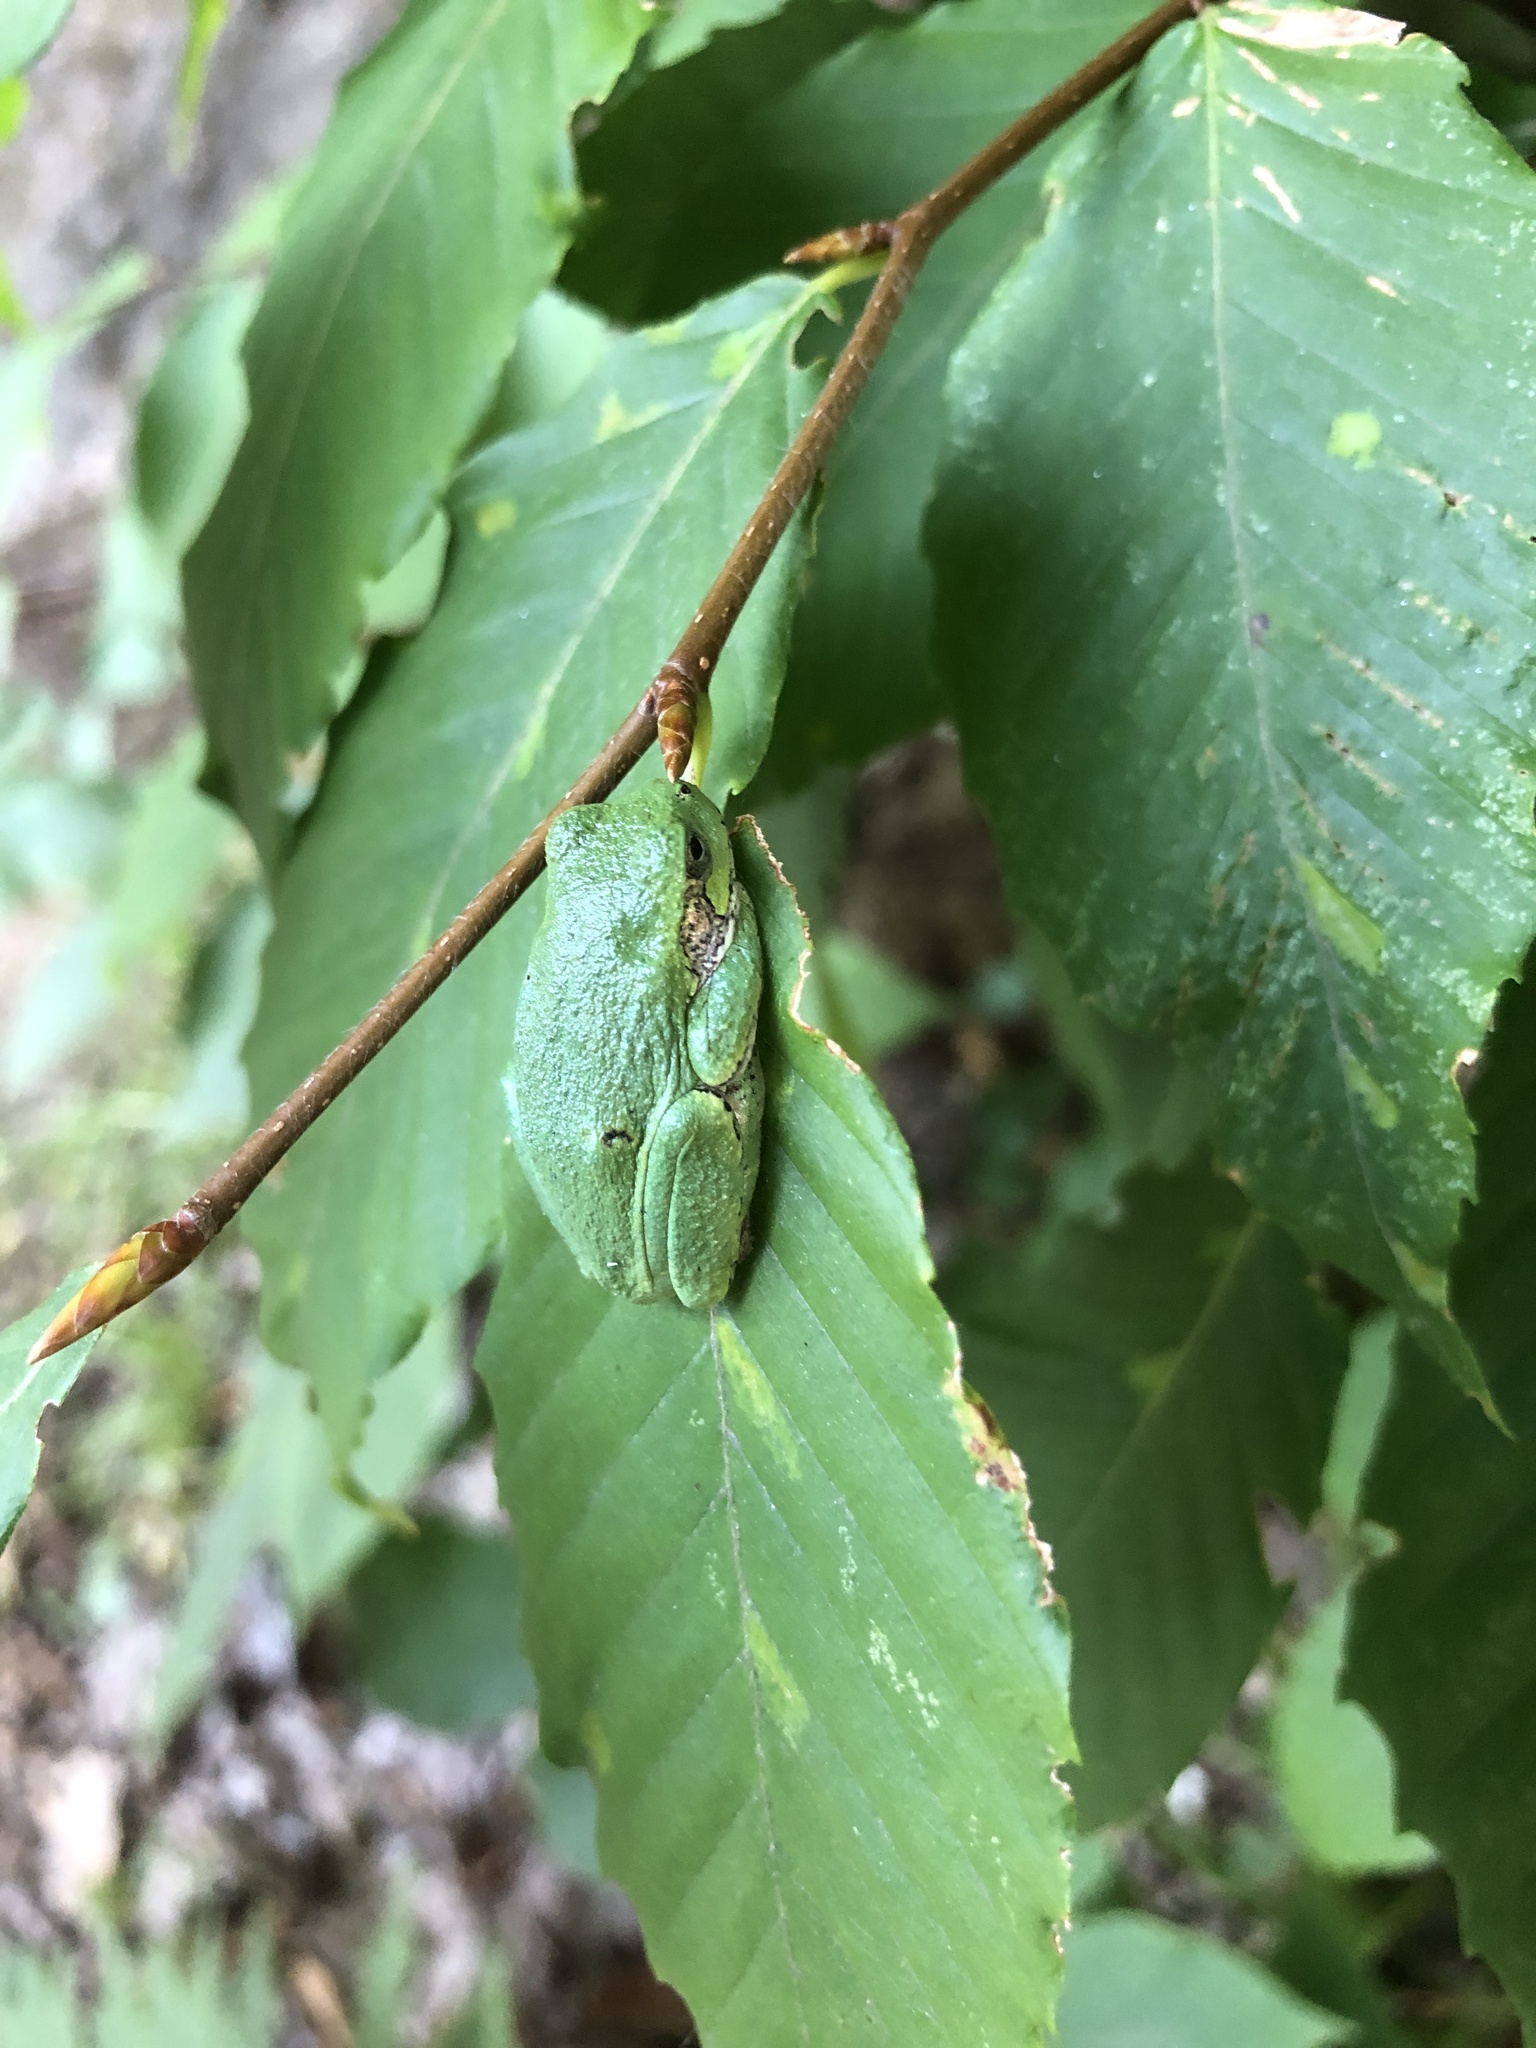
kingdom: Animalia
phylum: Chordata
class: Amphibia
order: Anura
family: Hylidae
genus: Dryophytes
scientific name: Dryophytes versicolor
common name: Gray treefrog
